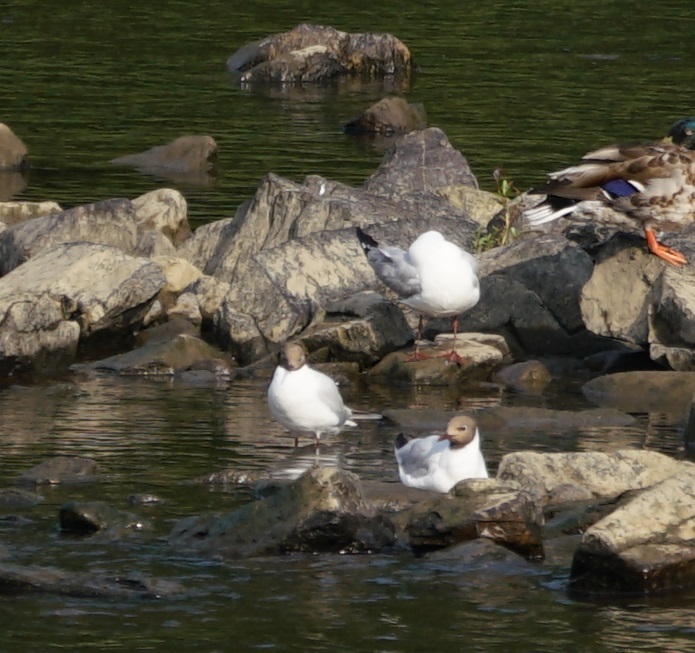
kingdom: Animalia
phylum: Chordata
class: Aves
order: Charadriiformes
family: Laridae
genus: Chroicocephalus
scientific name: Chroicocephalus ridibundus
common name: Black-headed gull
